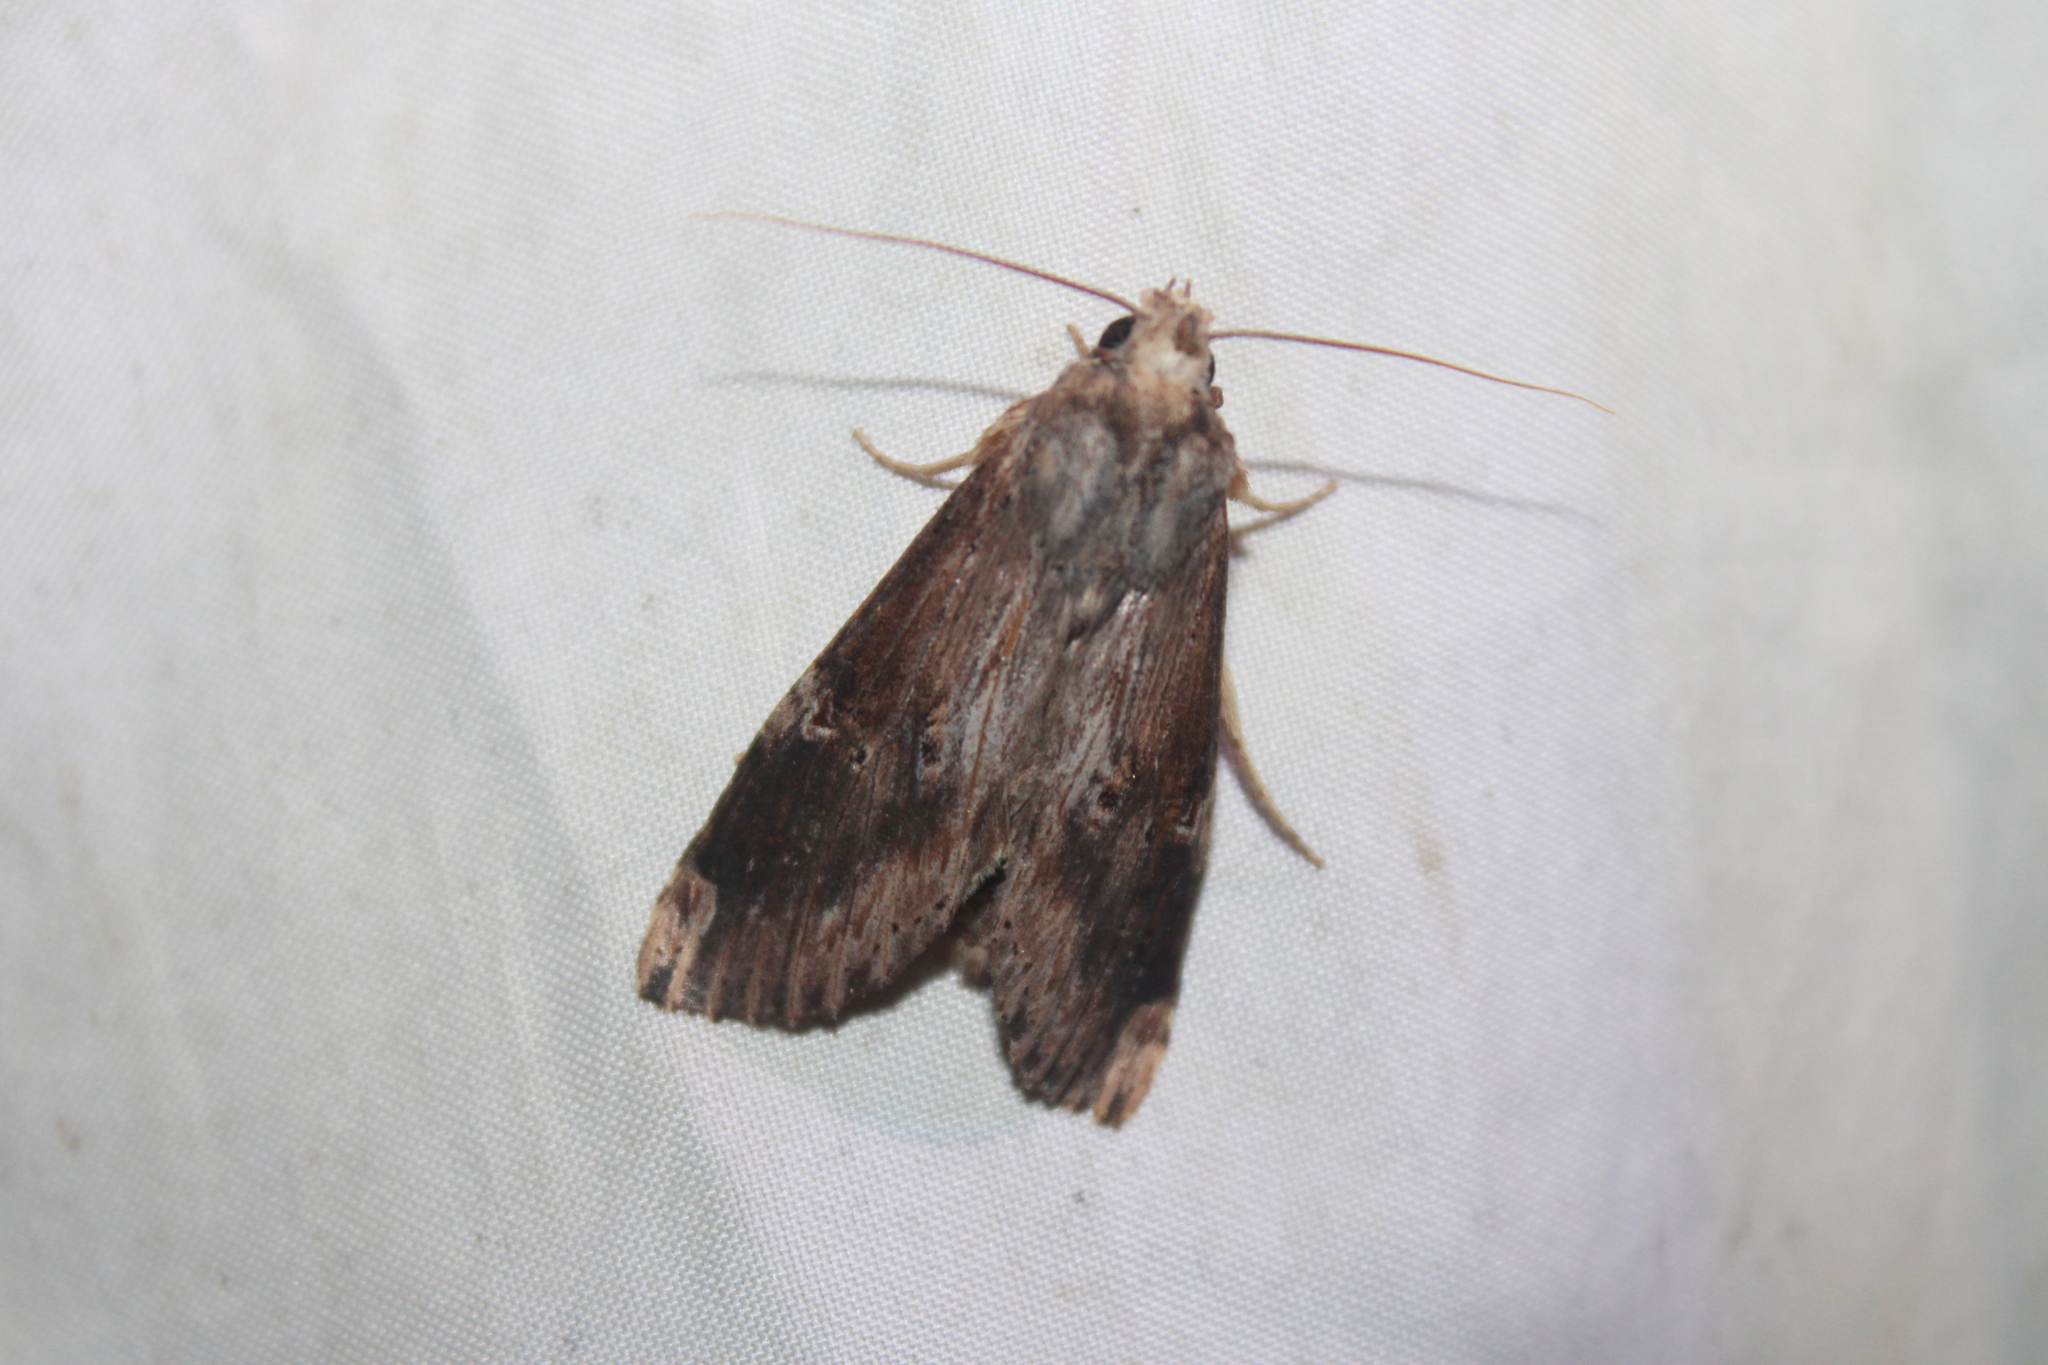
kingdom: Animalia
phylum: Arthropoda
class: Insecta
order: Lepidoptera
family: Notodontidae
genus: Nystalea
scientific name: Nystalea eutalanta
